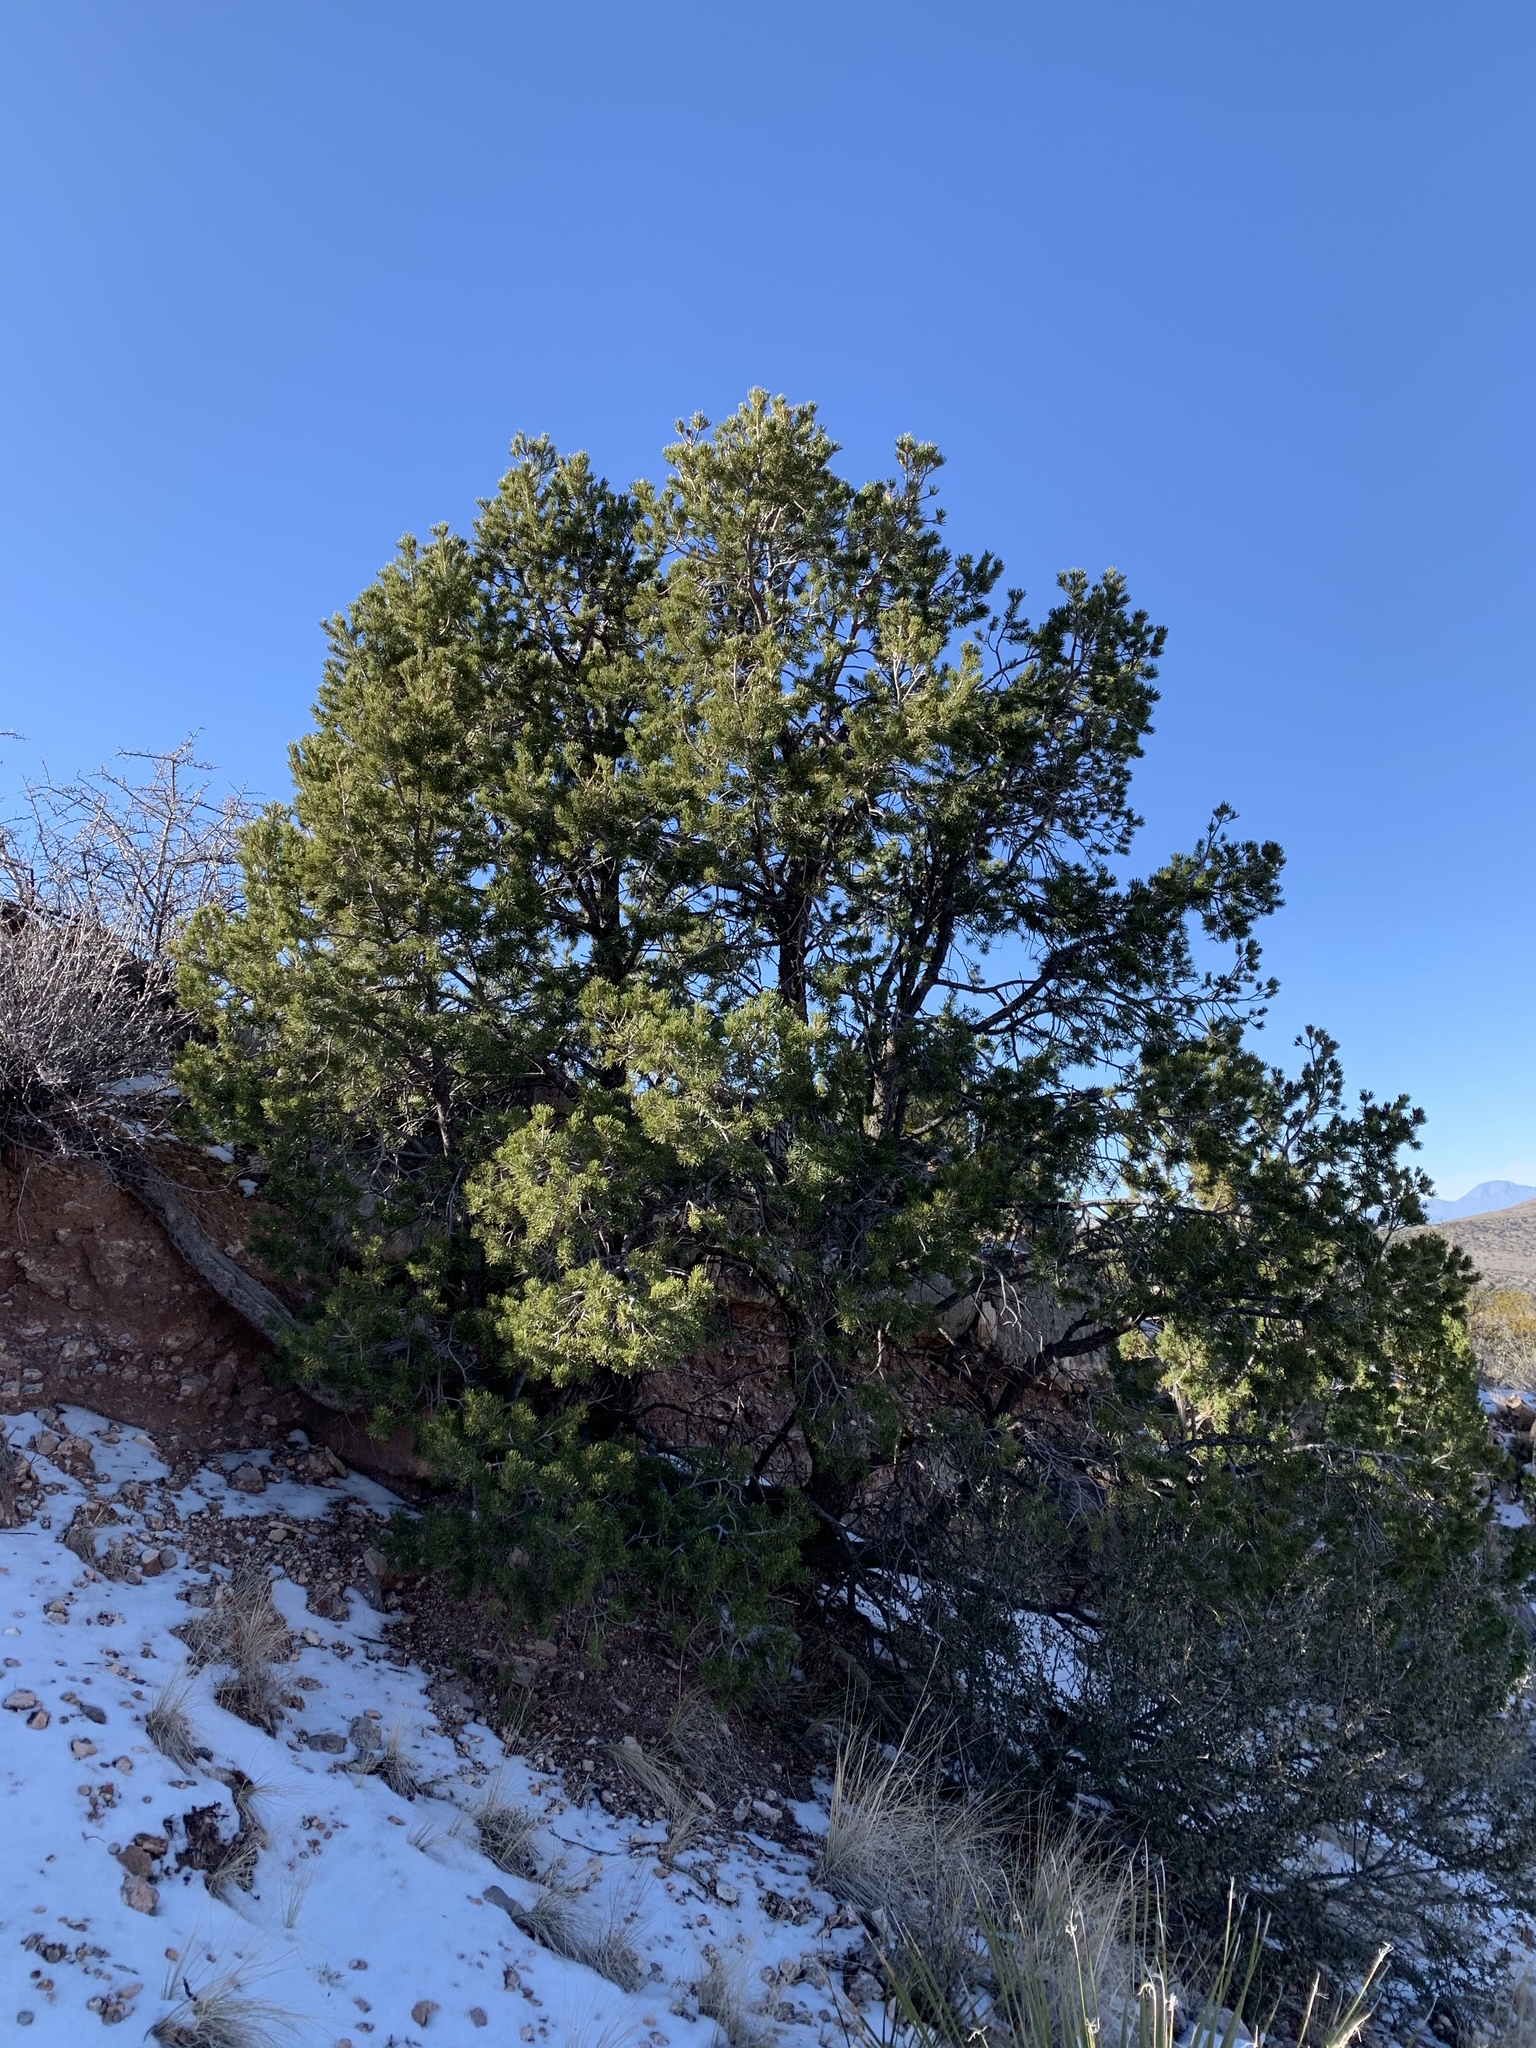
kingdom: Plantae
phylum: Tracheophyta
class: Pinopsida
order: Pinales
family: Pinaceae
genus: Pinus
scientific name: Pinus edulis
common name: Colorado pinyon
